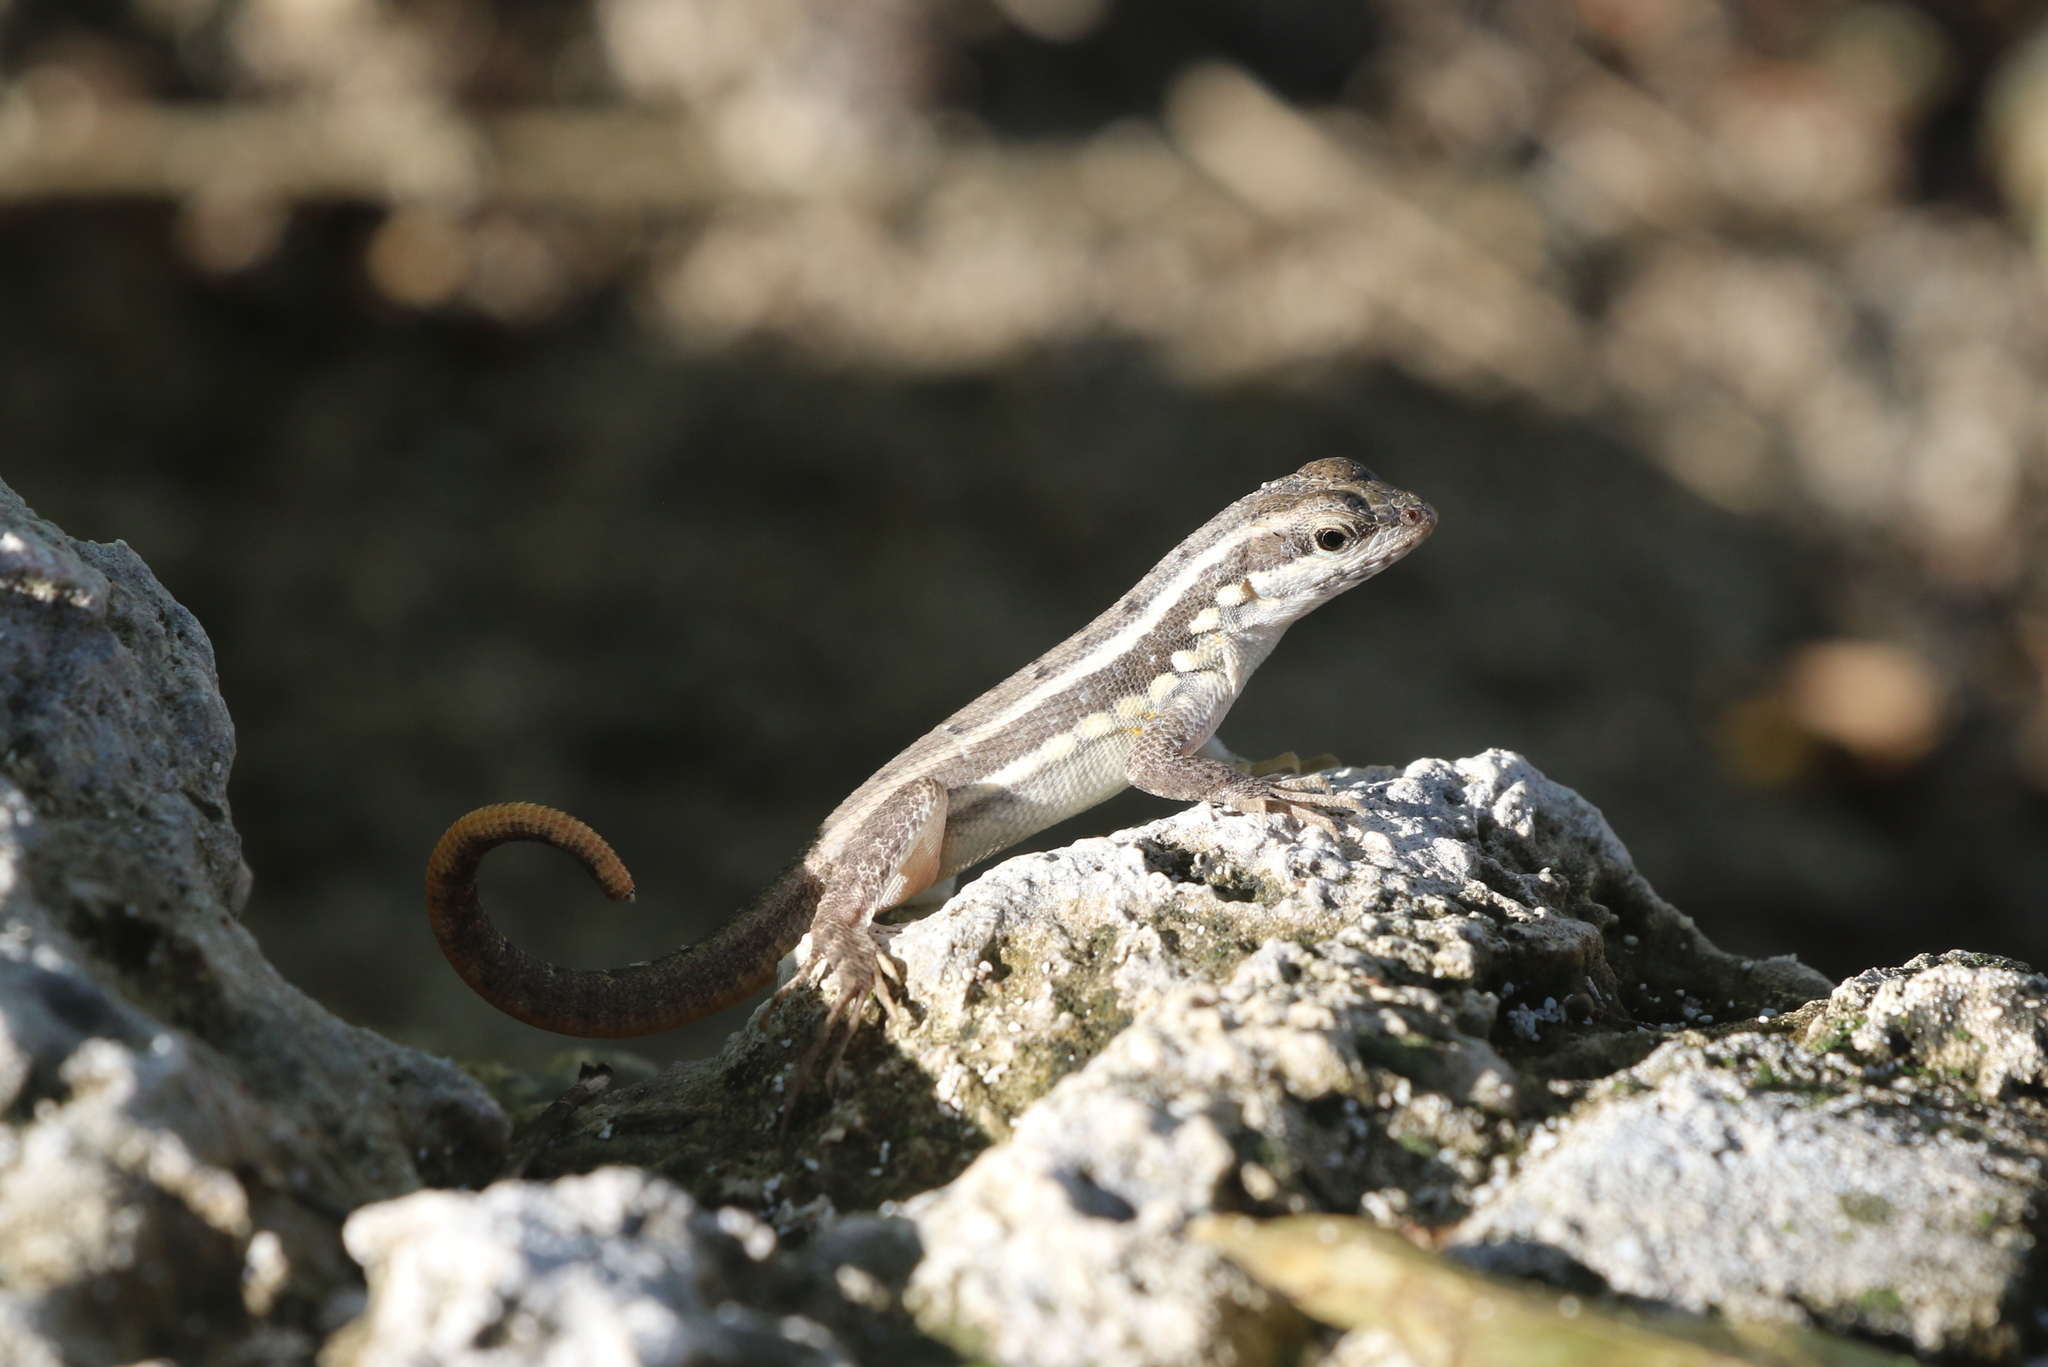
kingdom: Animalia
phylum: Chordata
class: Squamata
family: Leiocephalidae
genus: Leiocephalus
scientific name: Leiocephalus lunatus
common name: Santo domingo curlytail lizard
